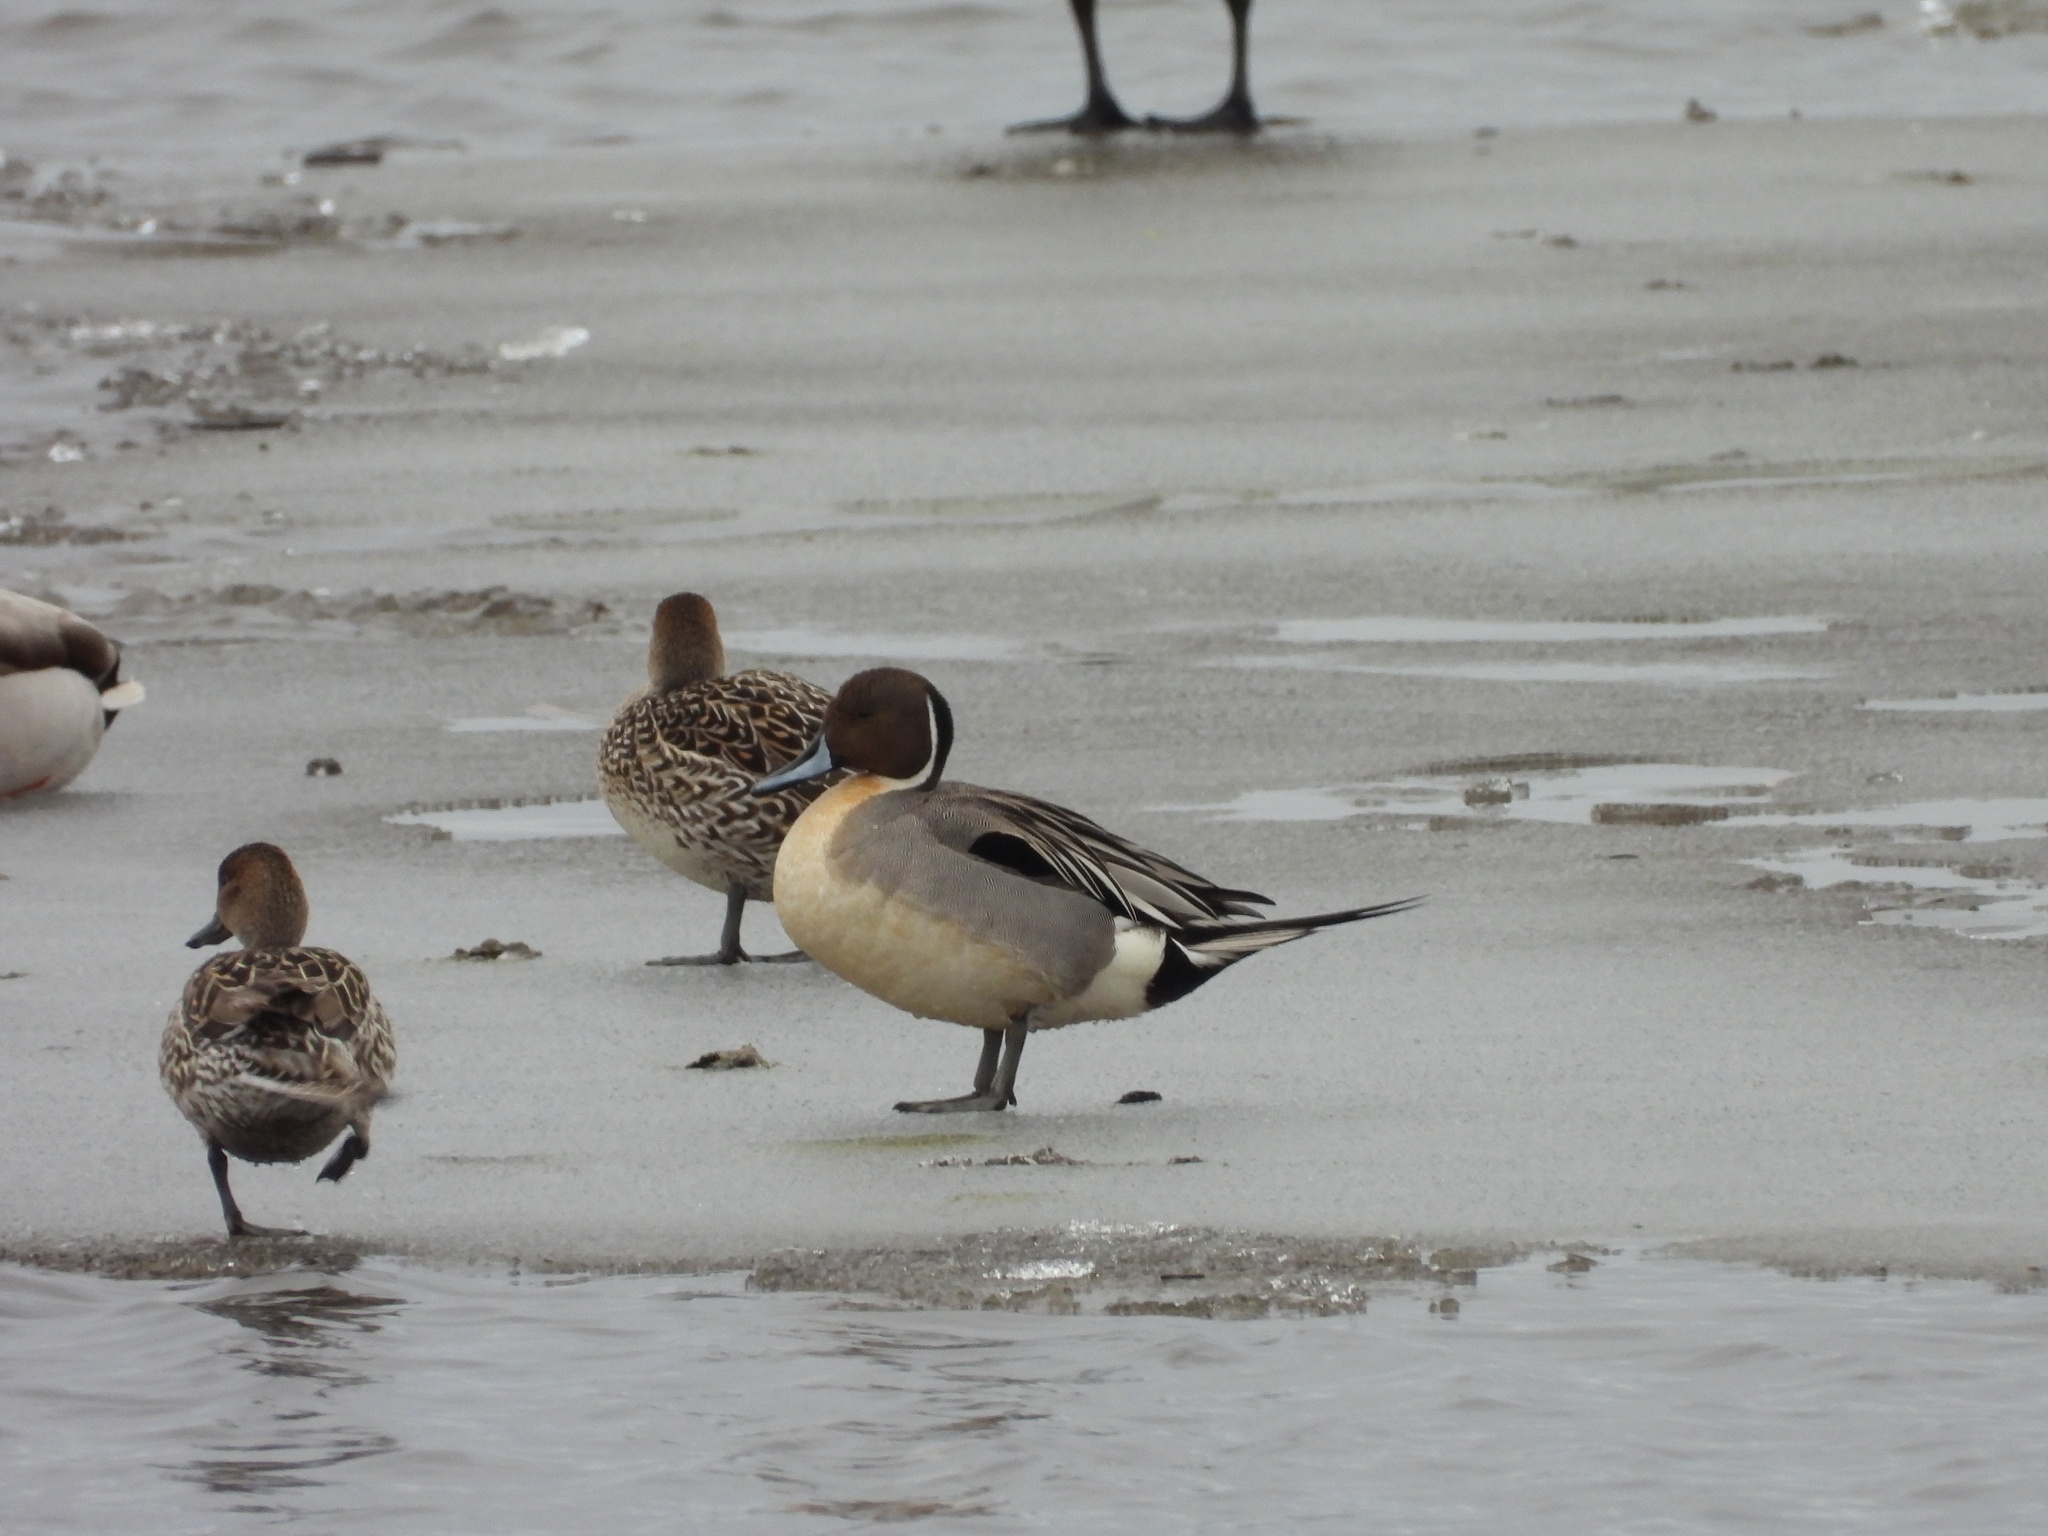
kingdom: Animalia
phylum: Chordata
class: Aves
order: Anseriformes
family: Anatidae
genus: Anas
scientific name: Anas acuta
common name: Northern pintail
